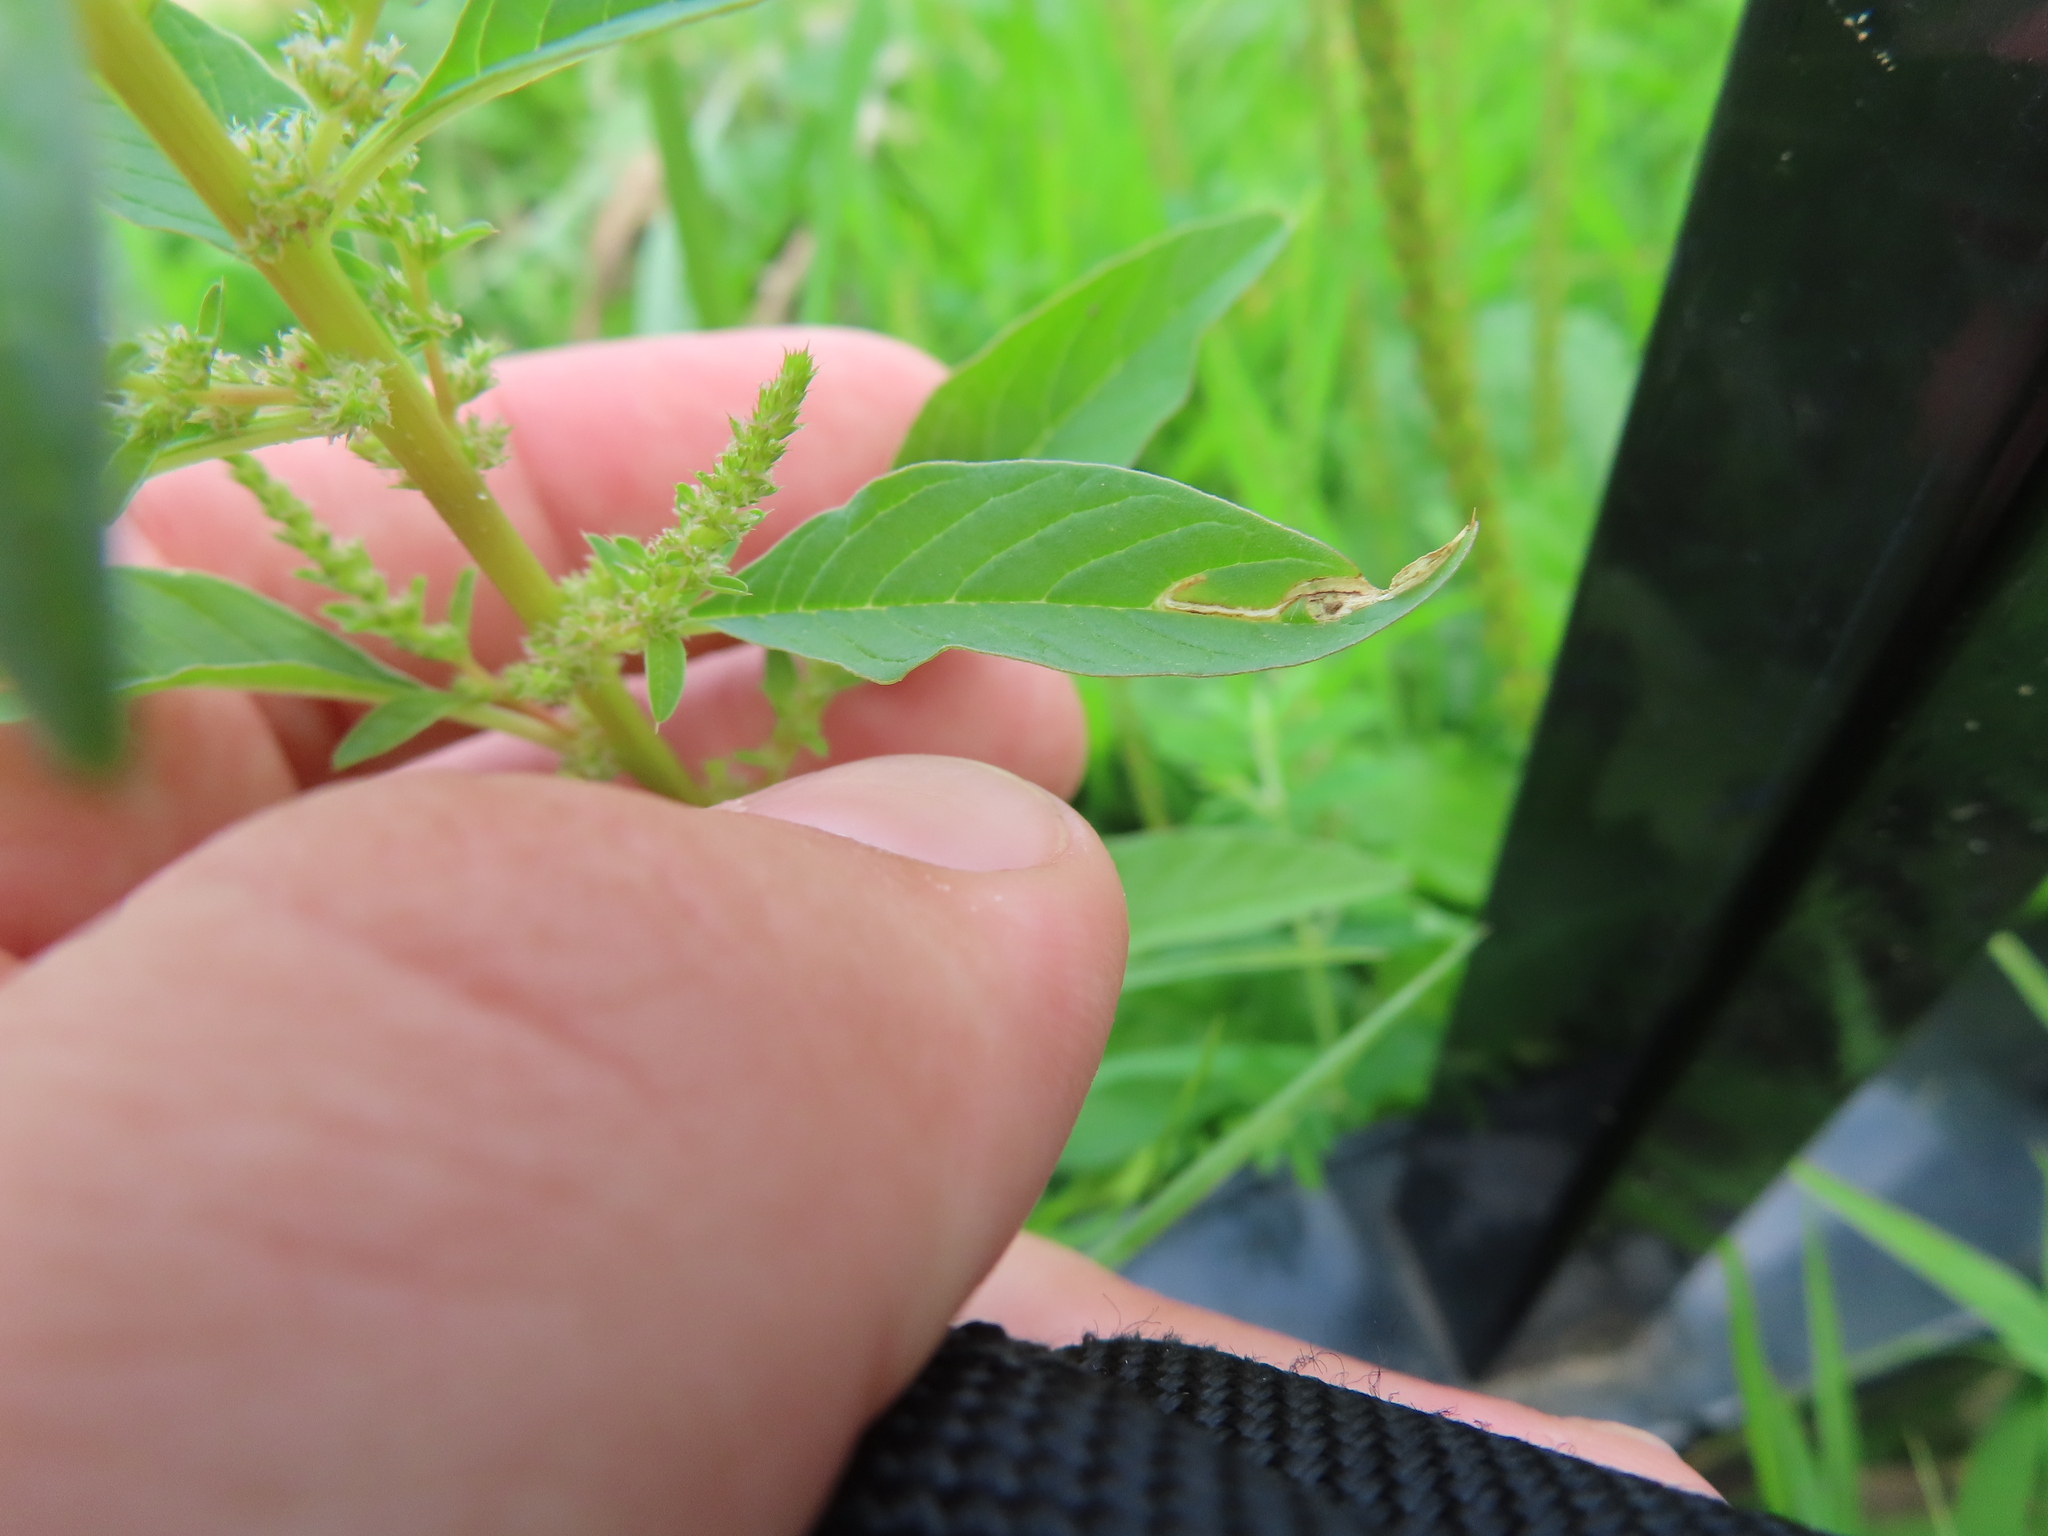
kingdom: Animalia
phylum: Arthropoda
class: Insecta
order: Diptera
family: Anthomyiidae
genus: Pegomya
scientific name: Pegomya wygodzinskyi
